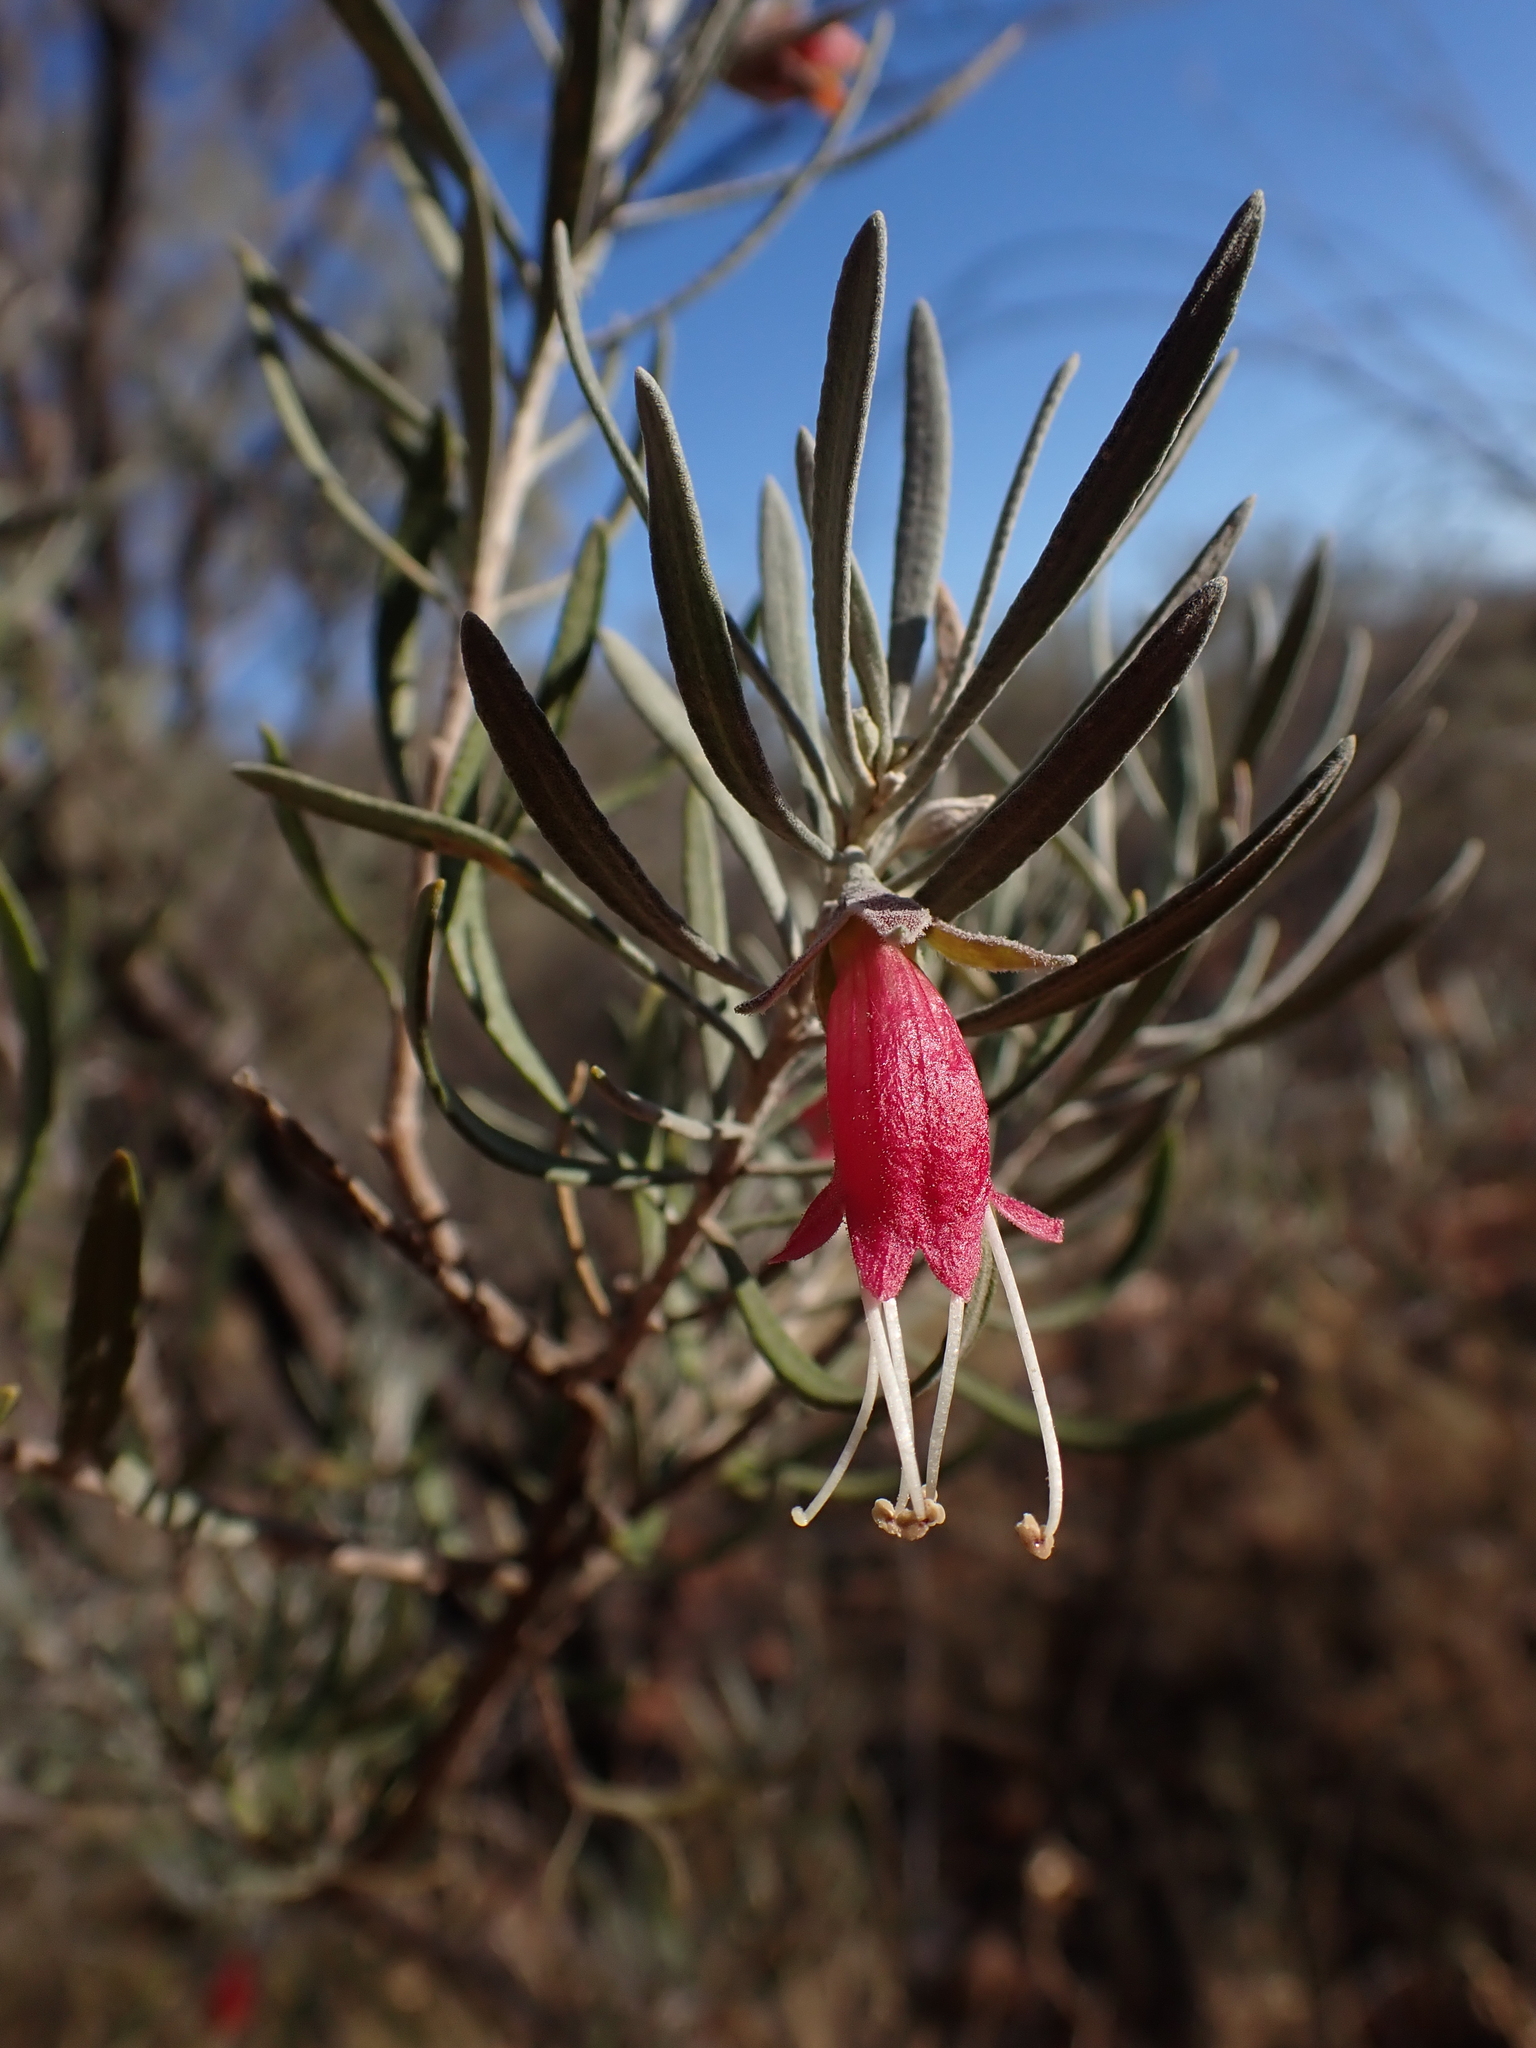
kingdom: Plantae
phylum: Tracheophyta
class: Magnoliopsida
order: Lamiales
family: Scrophulariaceae
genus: Eremophila
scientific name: Eremophila latrobei
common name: Crimson turkeybush
